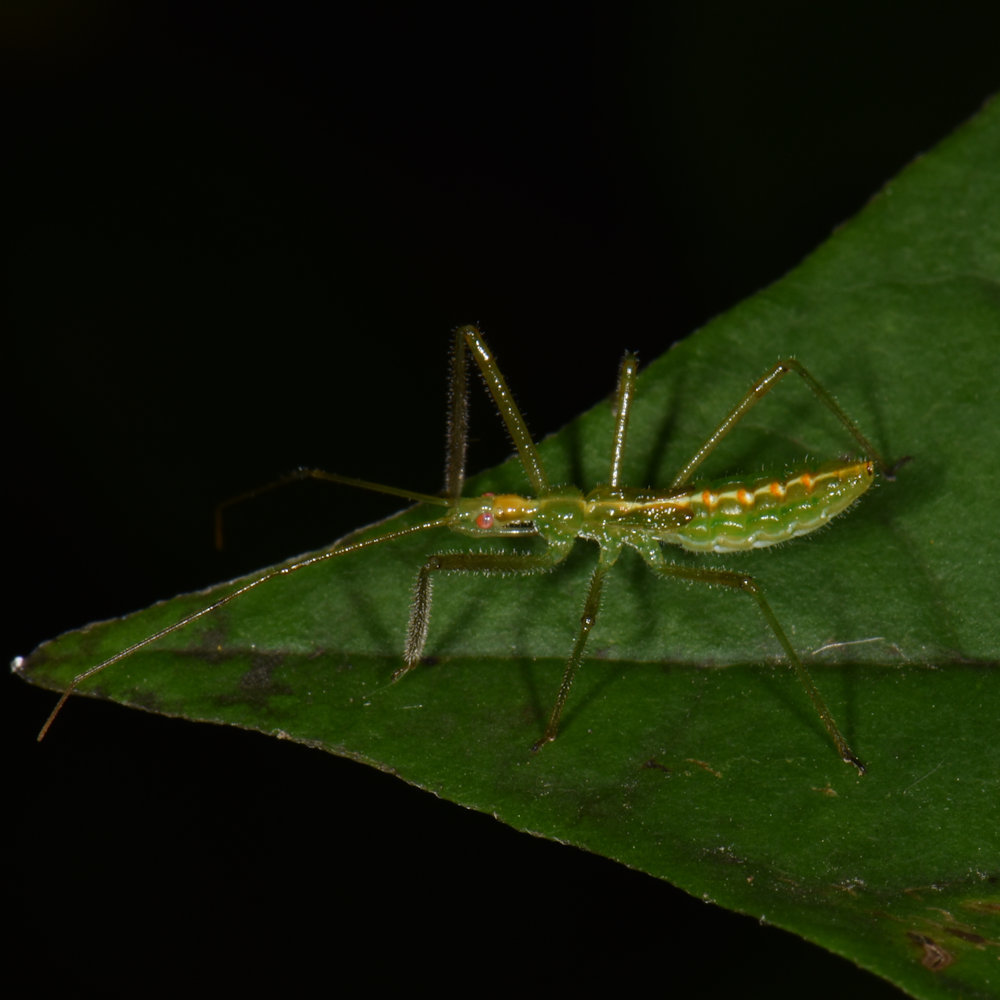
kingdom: Animalia
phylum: Arthropoda
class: Insecta
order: Hemiptera
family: Reduviidae
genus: Zelus
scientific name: Zelus luridus
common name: Pale green assassin bug
